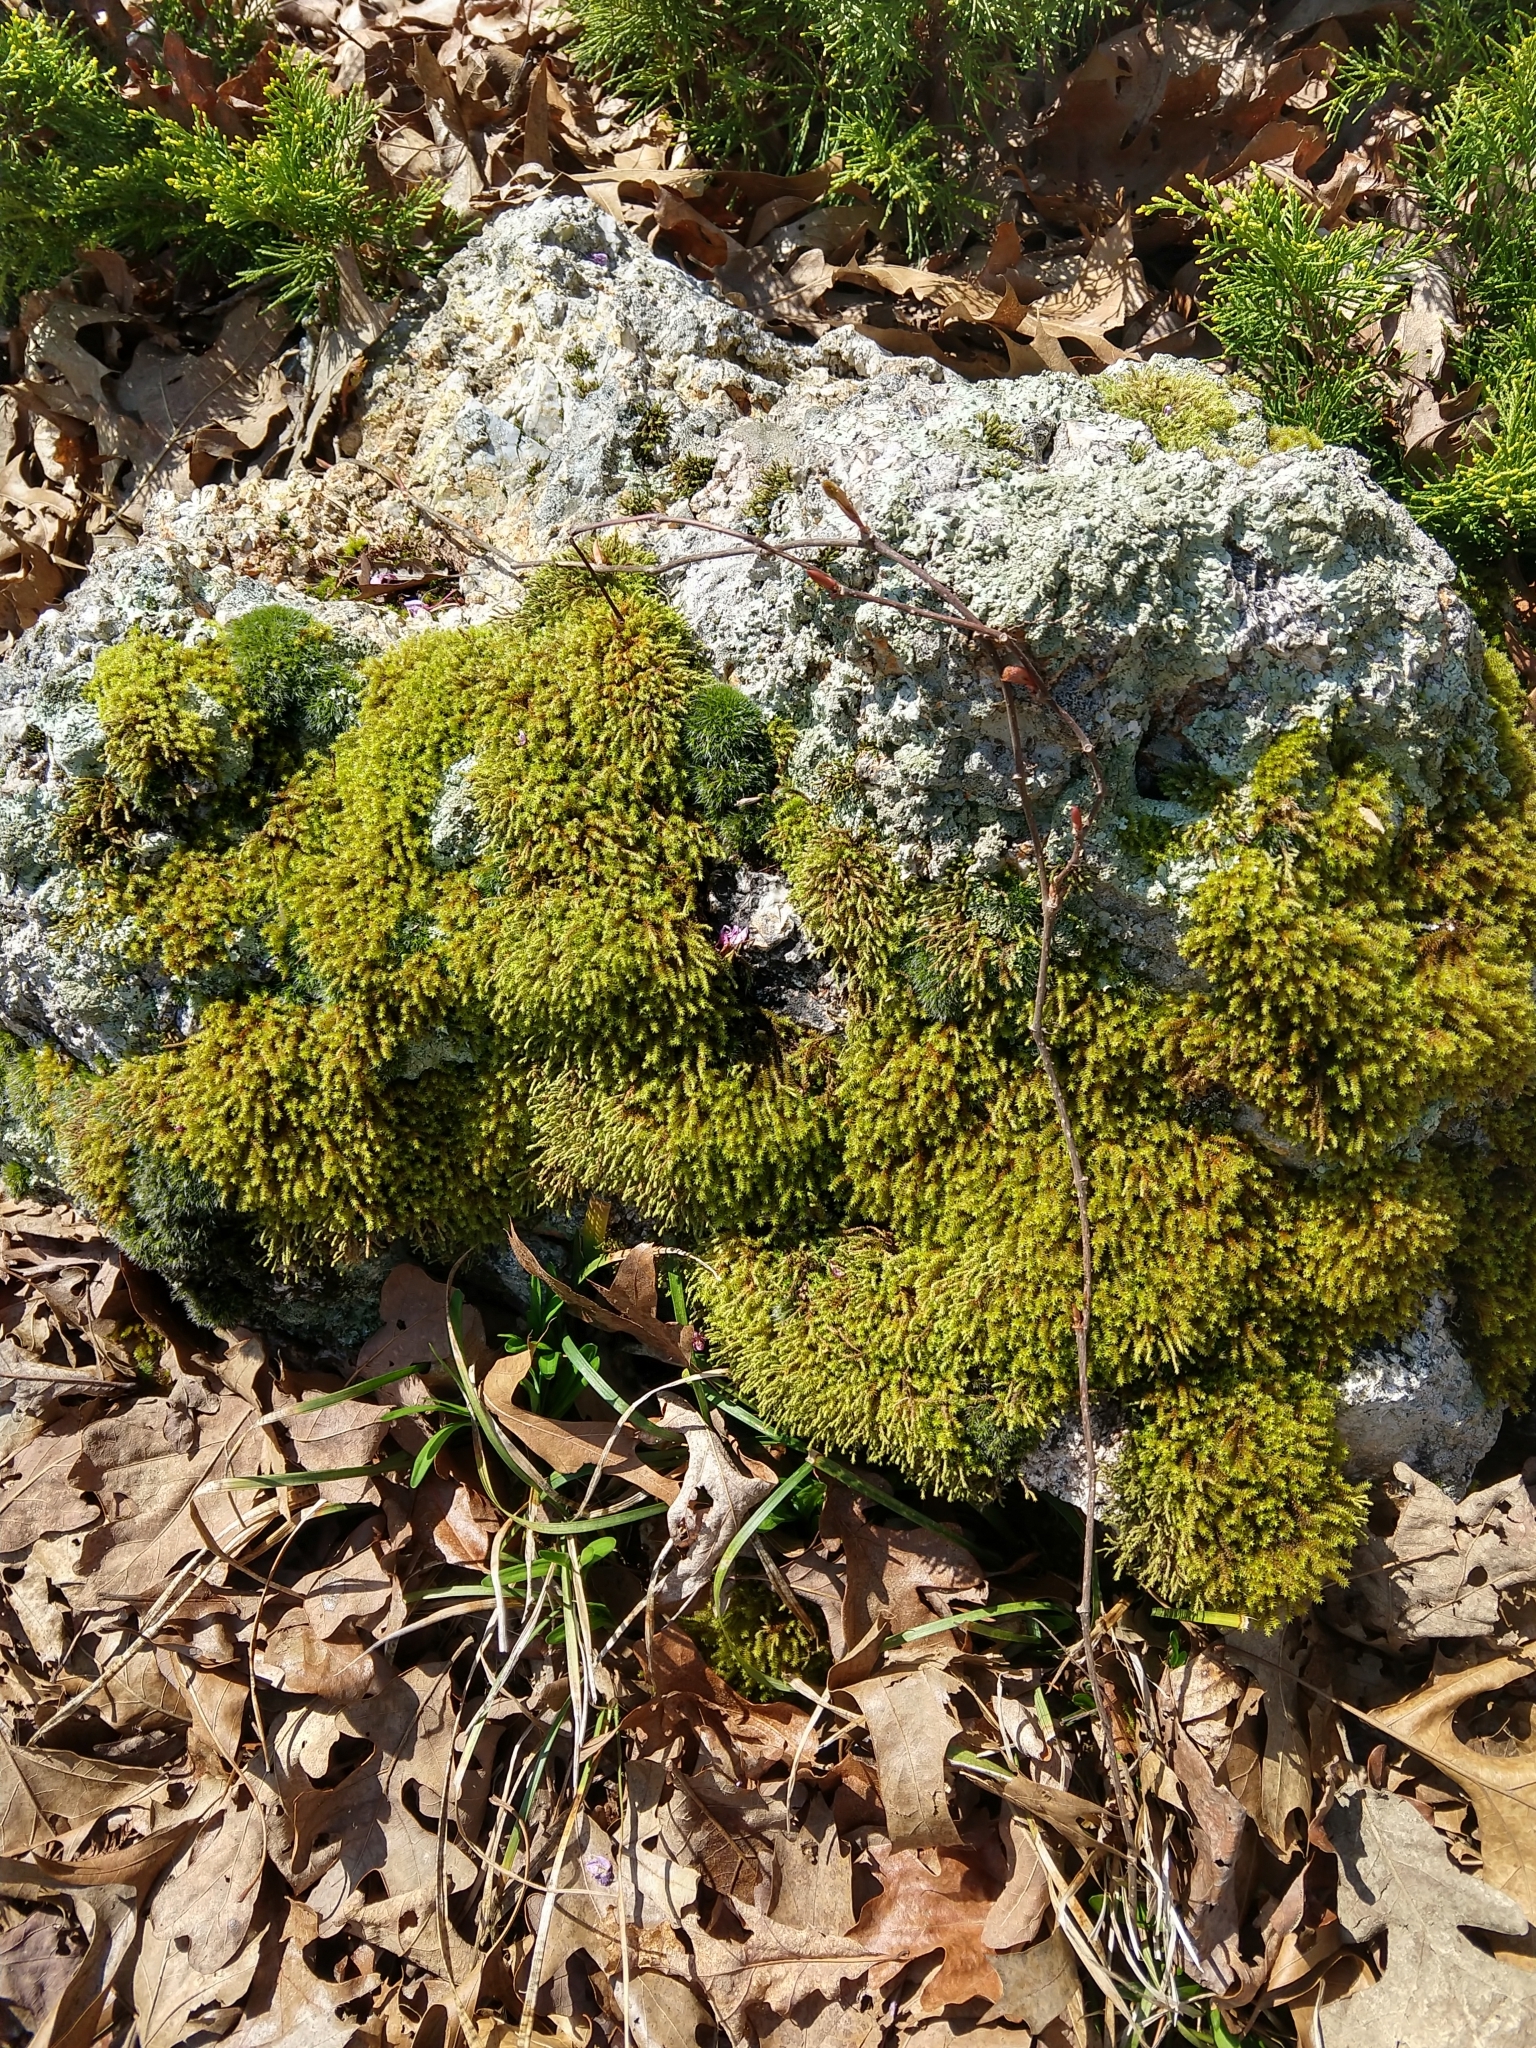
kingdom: Plantae
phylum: Bryophyta
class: Bryopsida
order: Hedwigiales
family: Hedwigiaceae
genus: Hedwigia
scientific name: Hedwigia ciliata
